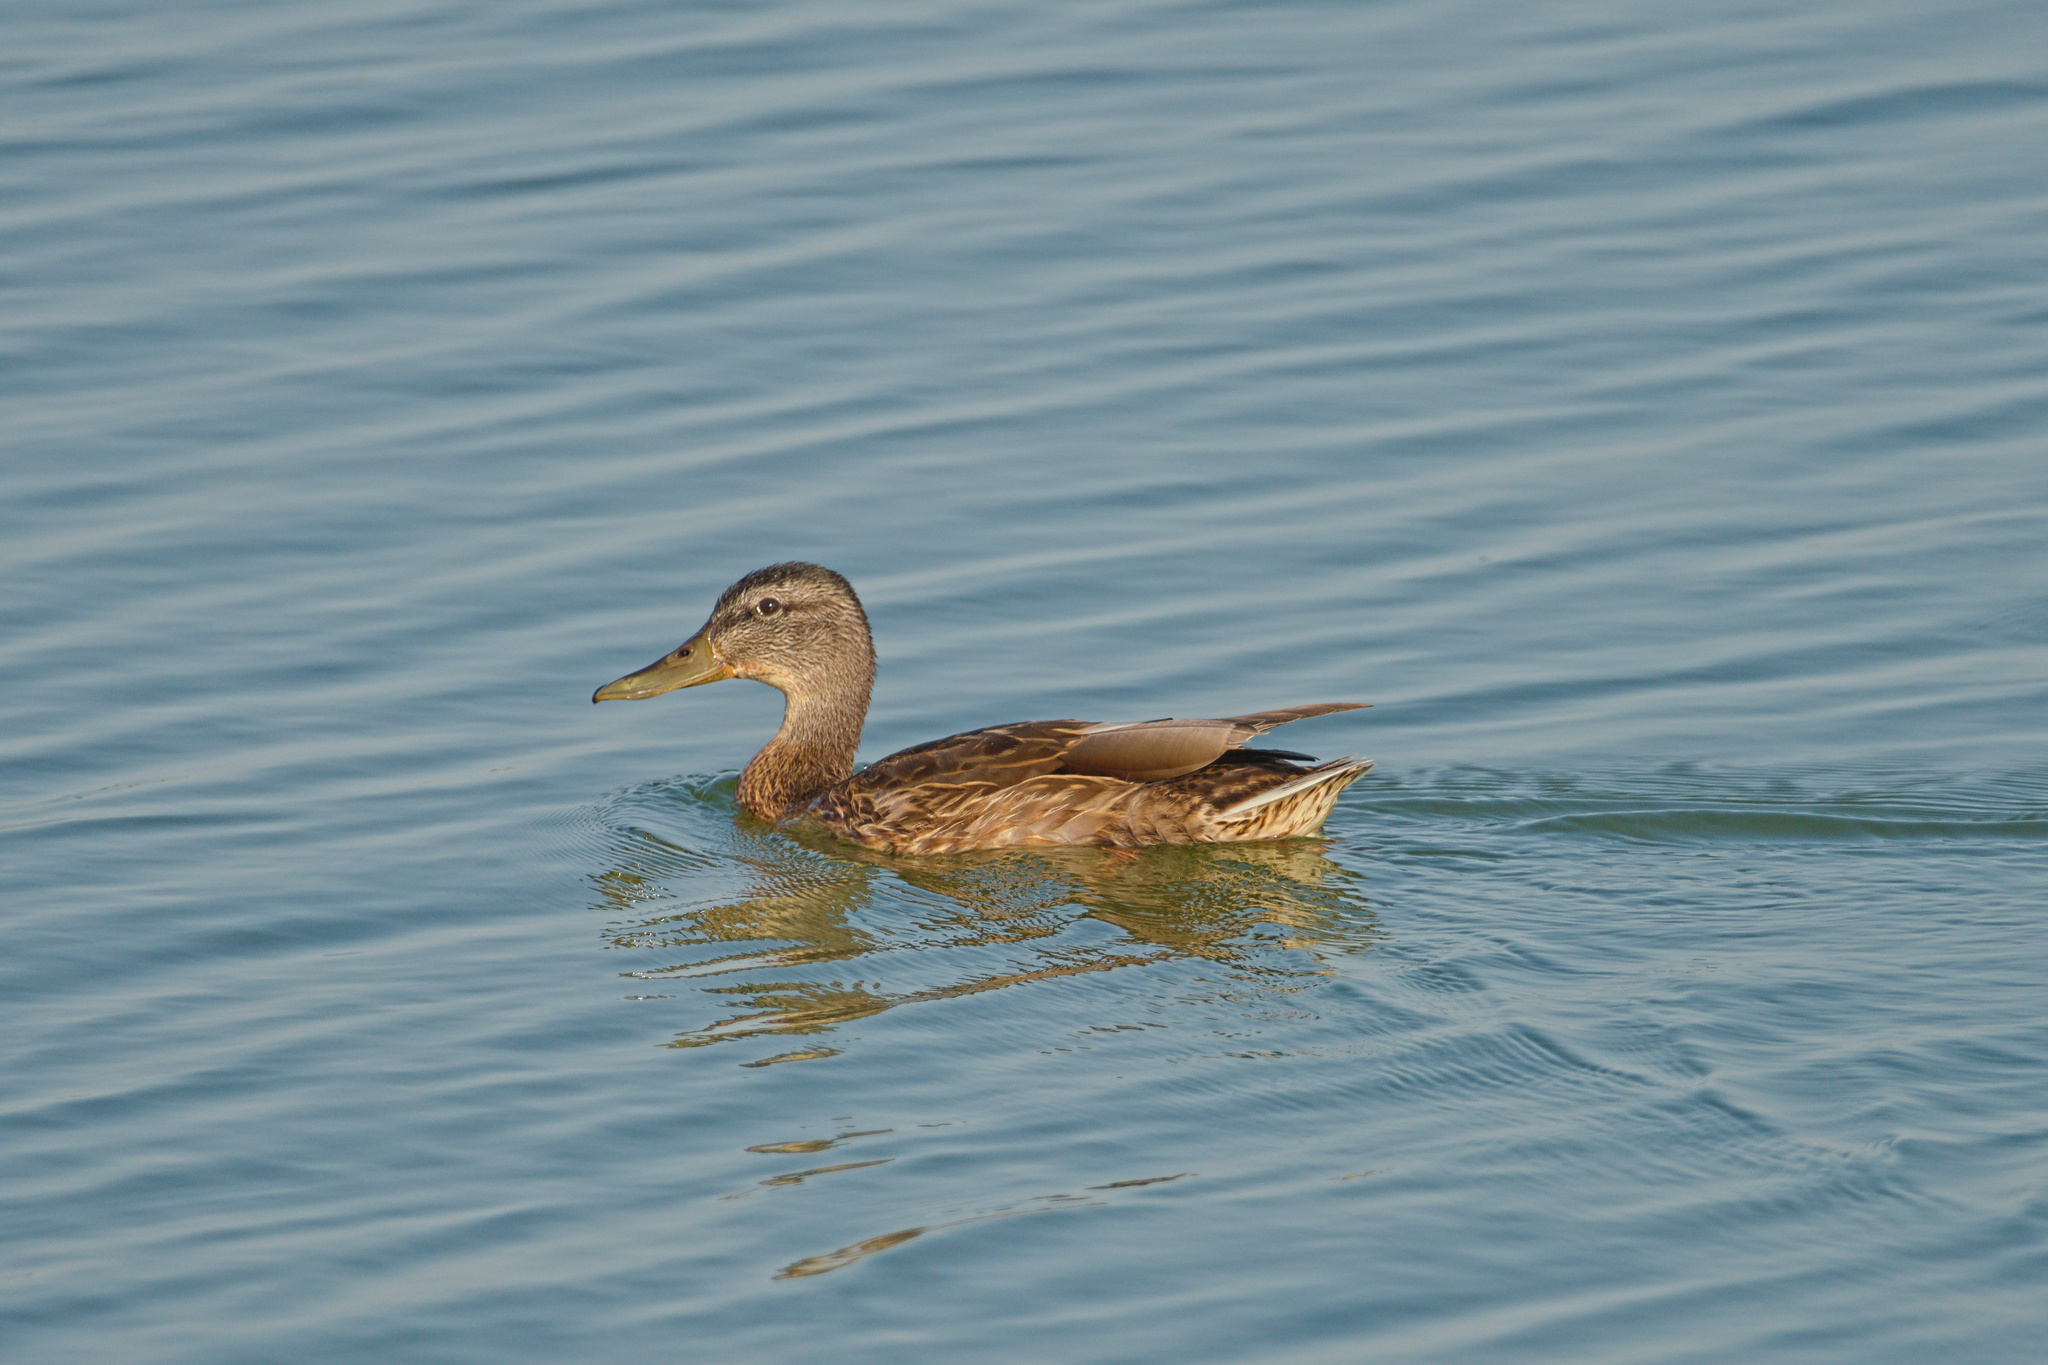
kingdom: Animalia
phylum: Chordata
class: Aves
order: Anseriformes
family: Anatidae
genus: Anas
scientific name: Anas platyrhynchos
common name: Mallard
